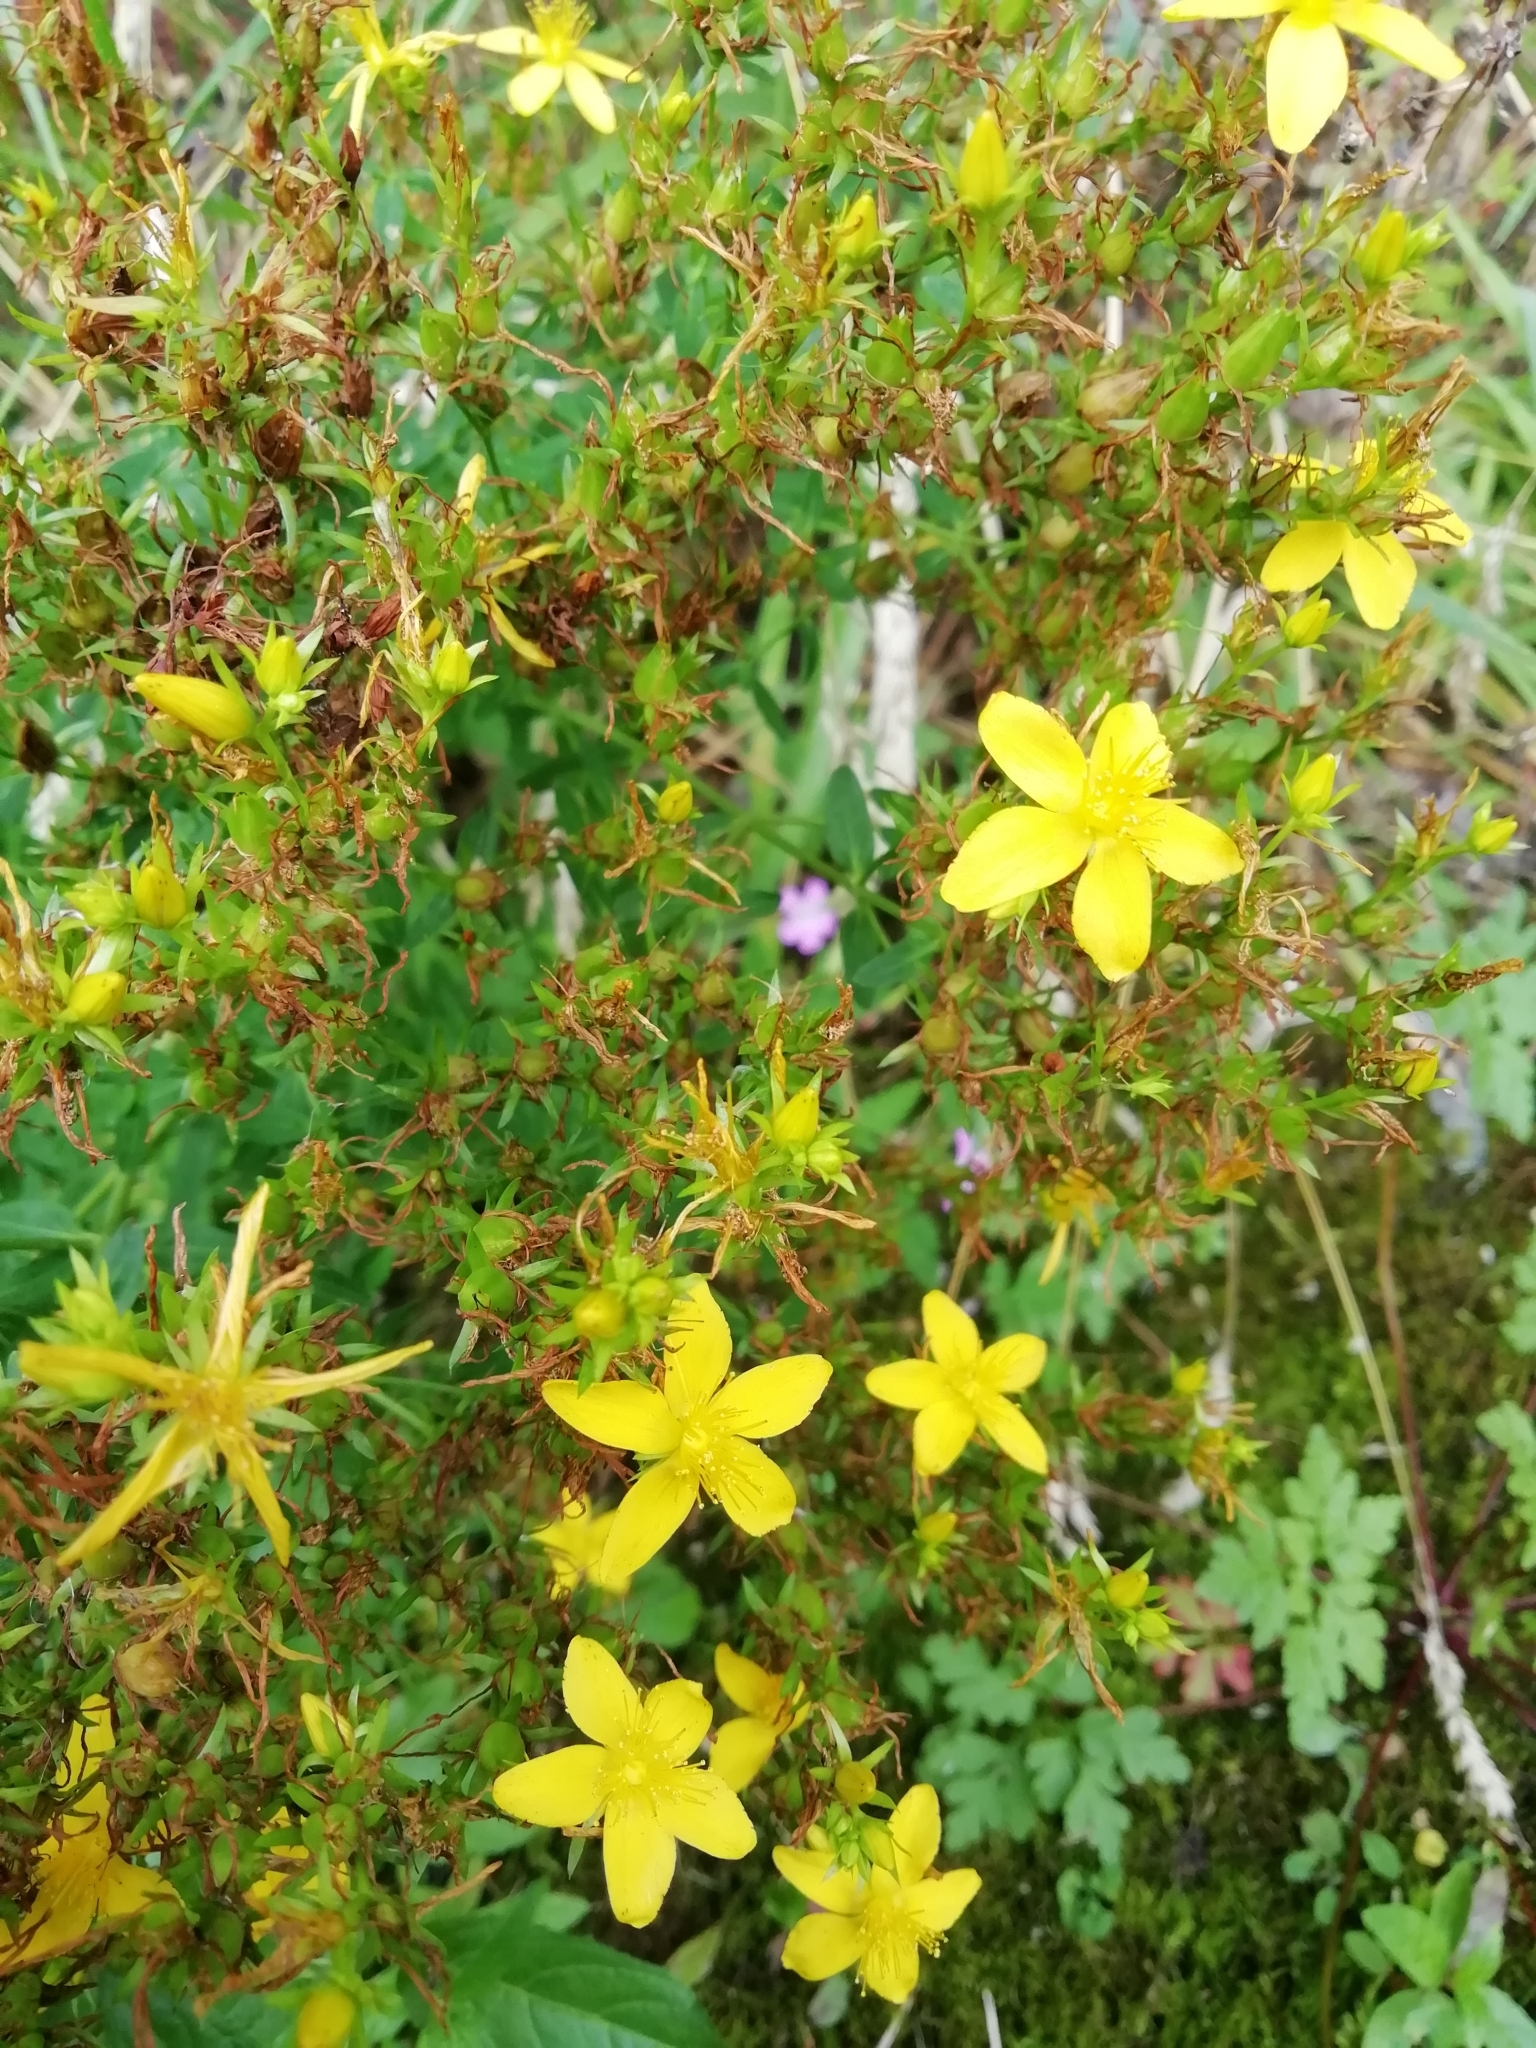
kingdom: Plantae
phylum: Tracheophyta
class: Magnoliopsida
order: Malpighiales
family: Hypericaceae
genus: Hypericum
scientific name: Hypericum perforatum
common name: Common st. johnswort
